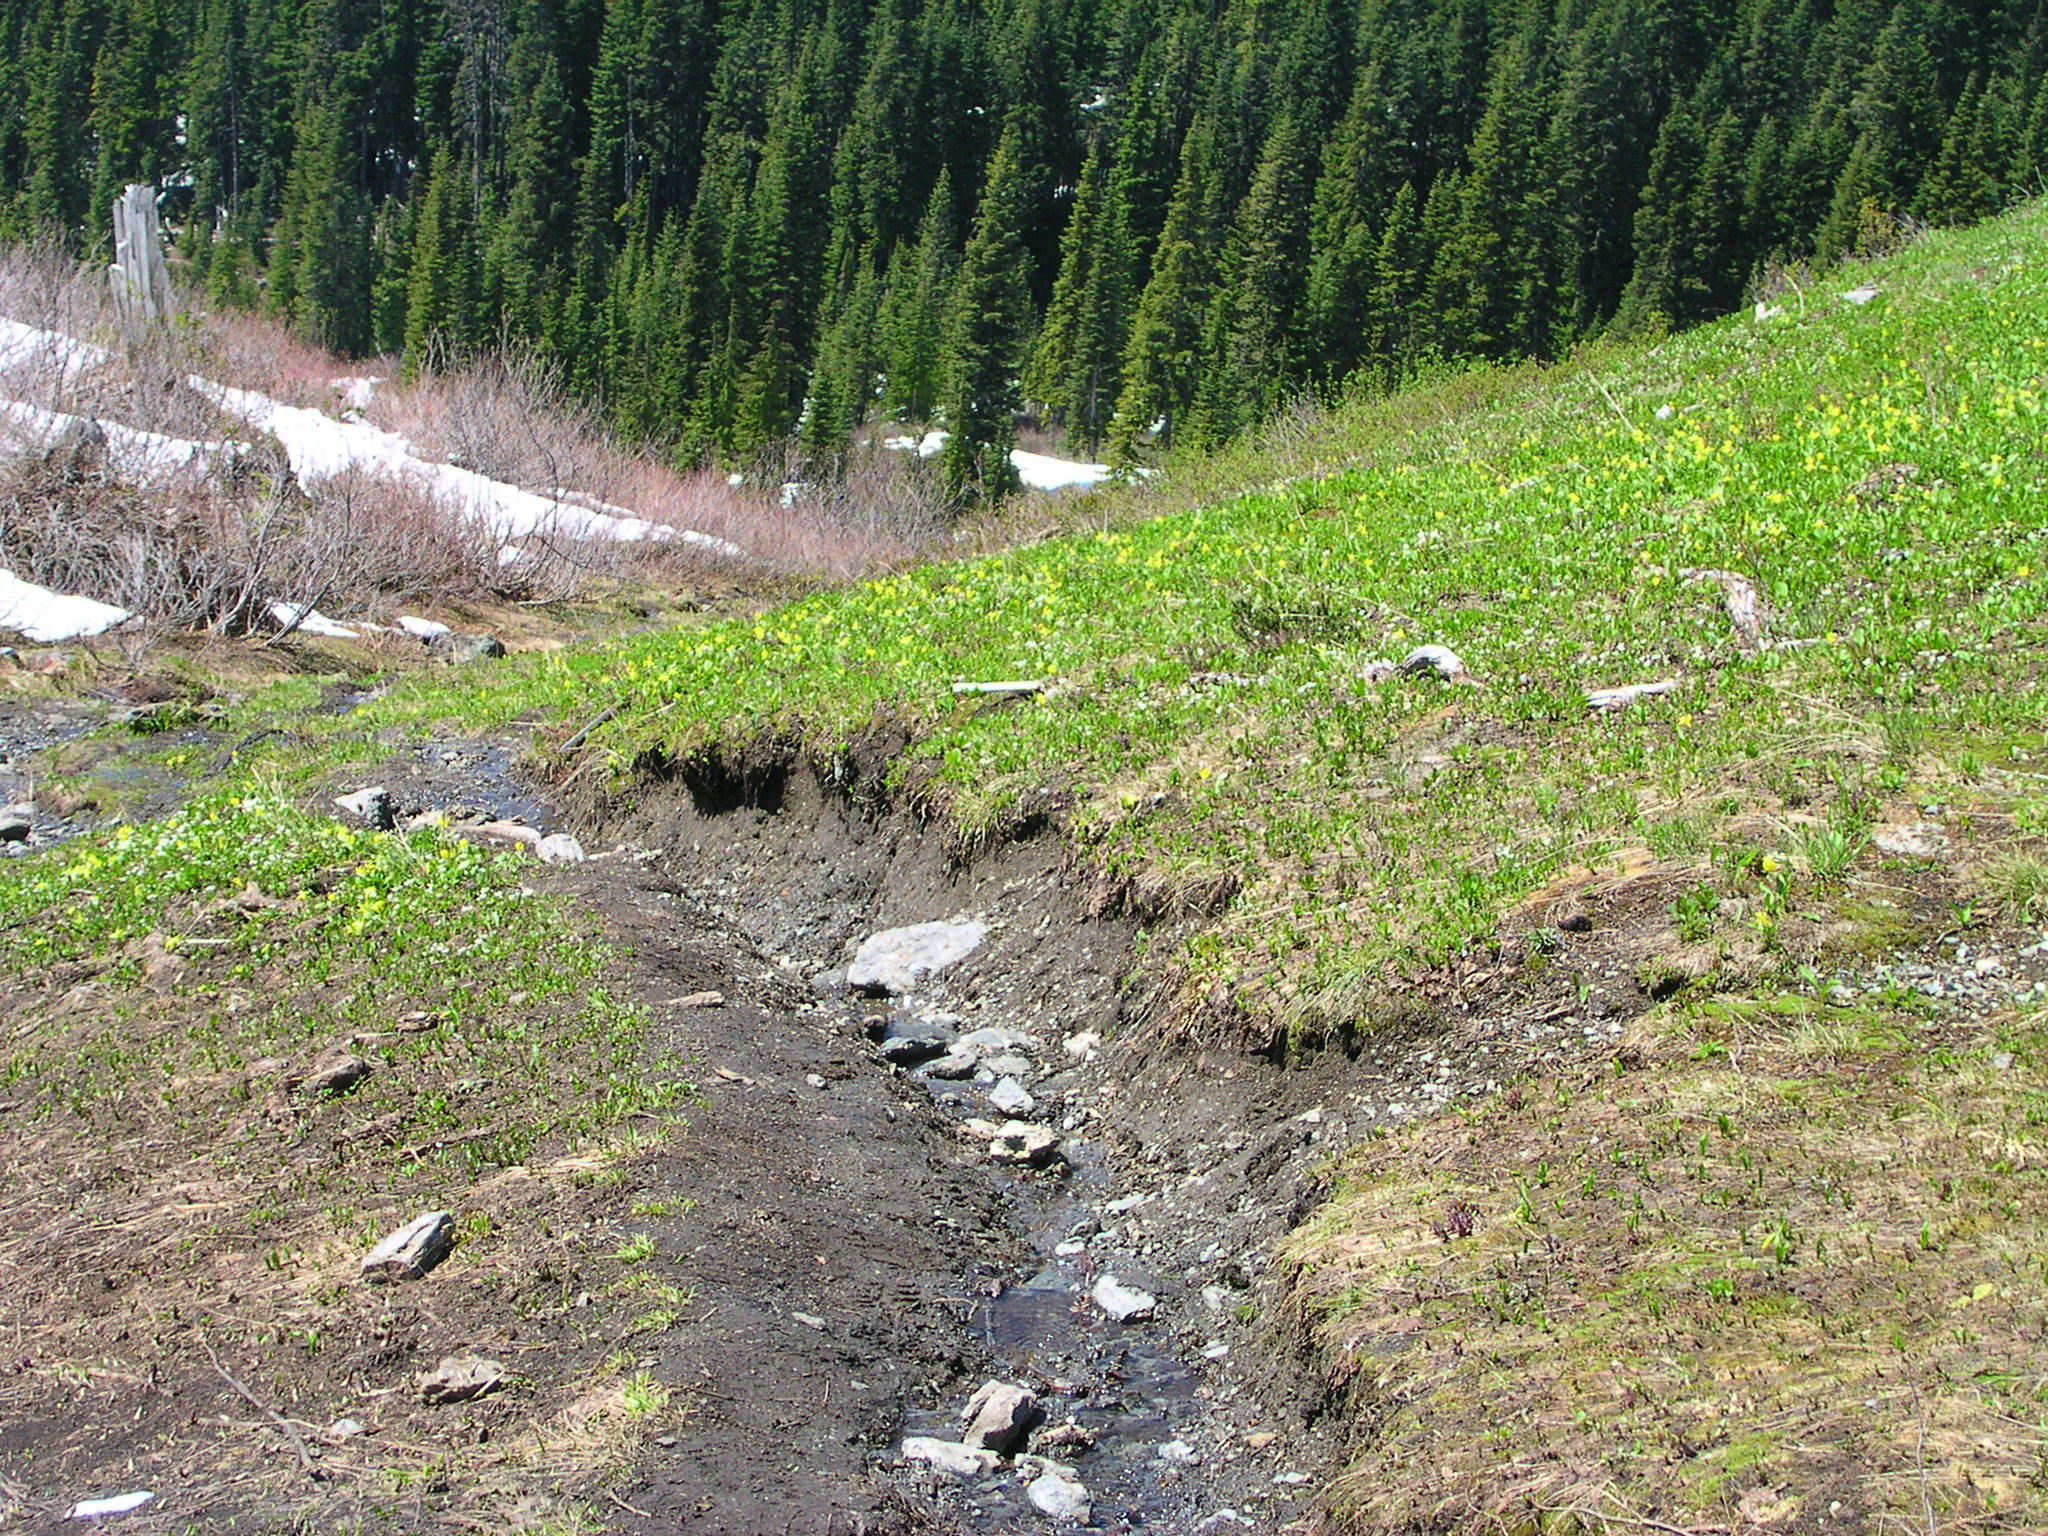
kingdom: Plantae
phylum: Tracheophyta
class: Liliopsida
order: Liliales
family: Liliaceae
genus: Erythronium
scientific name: Erythronium grandiflorum
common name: Avalanche-lily
